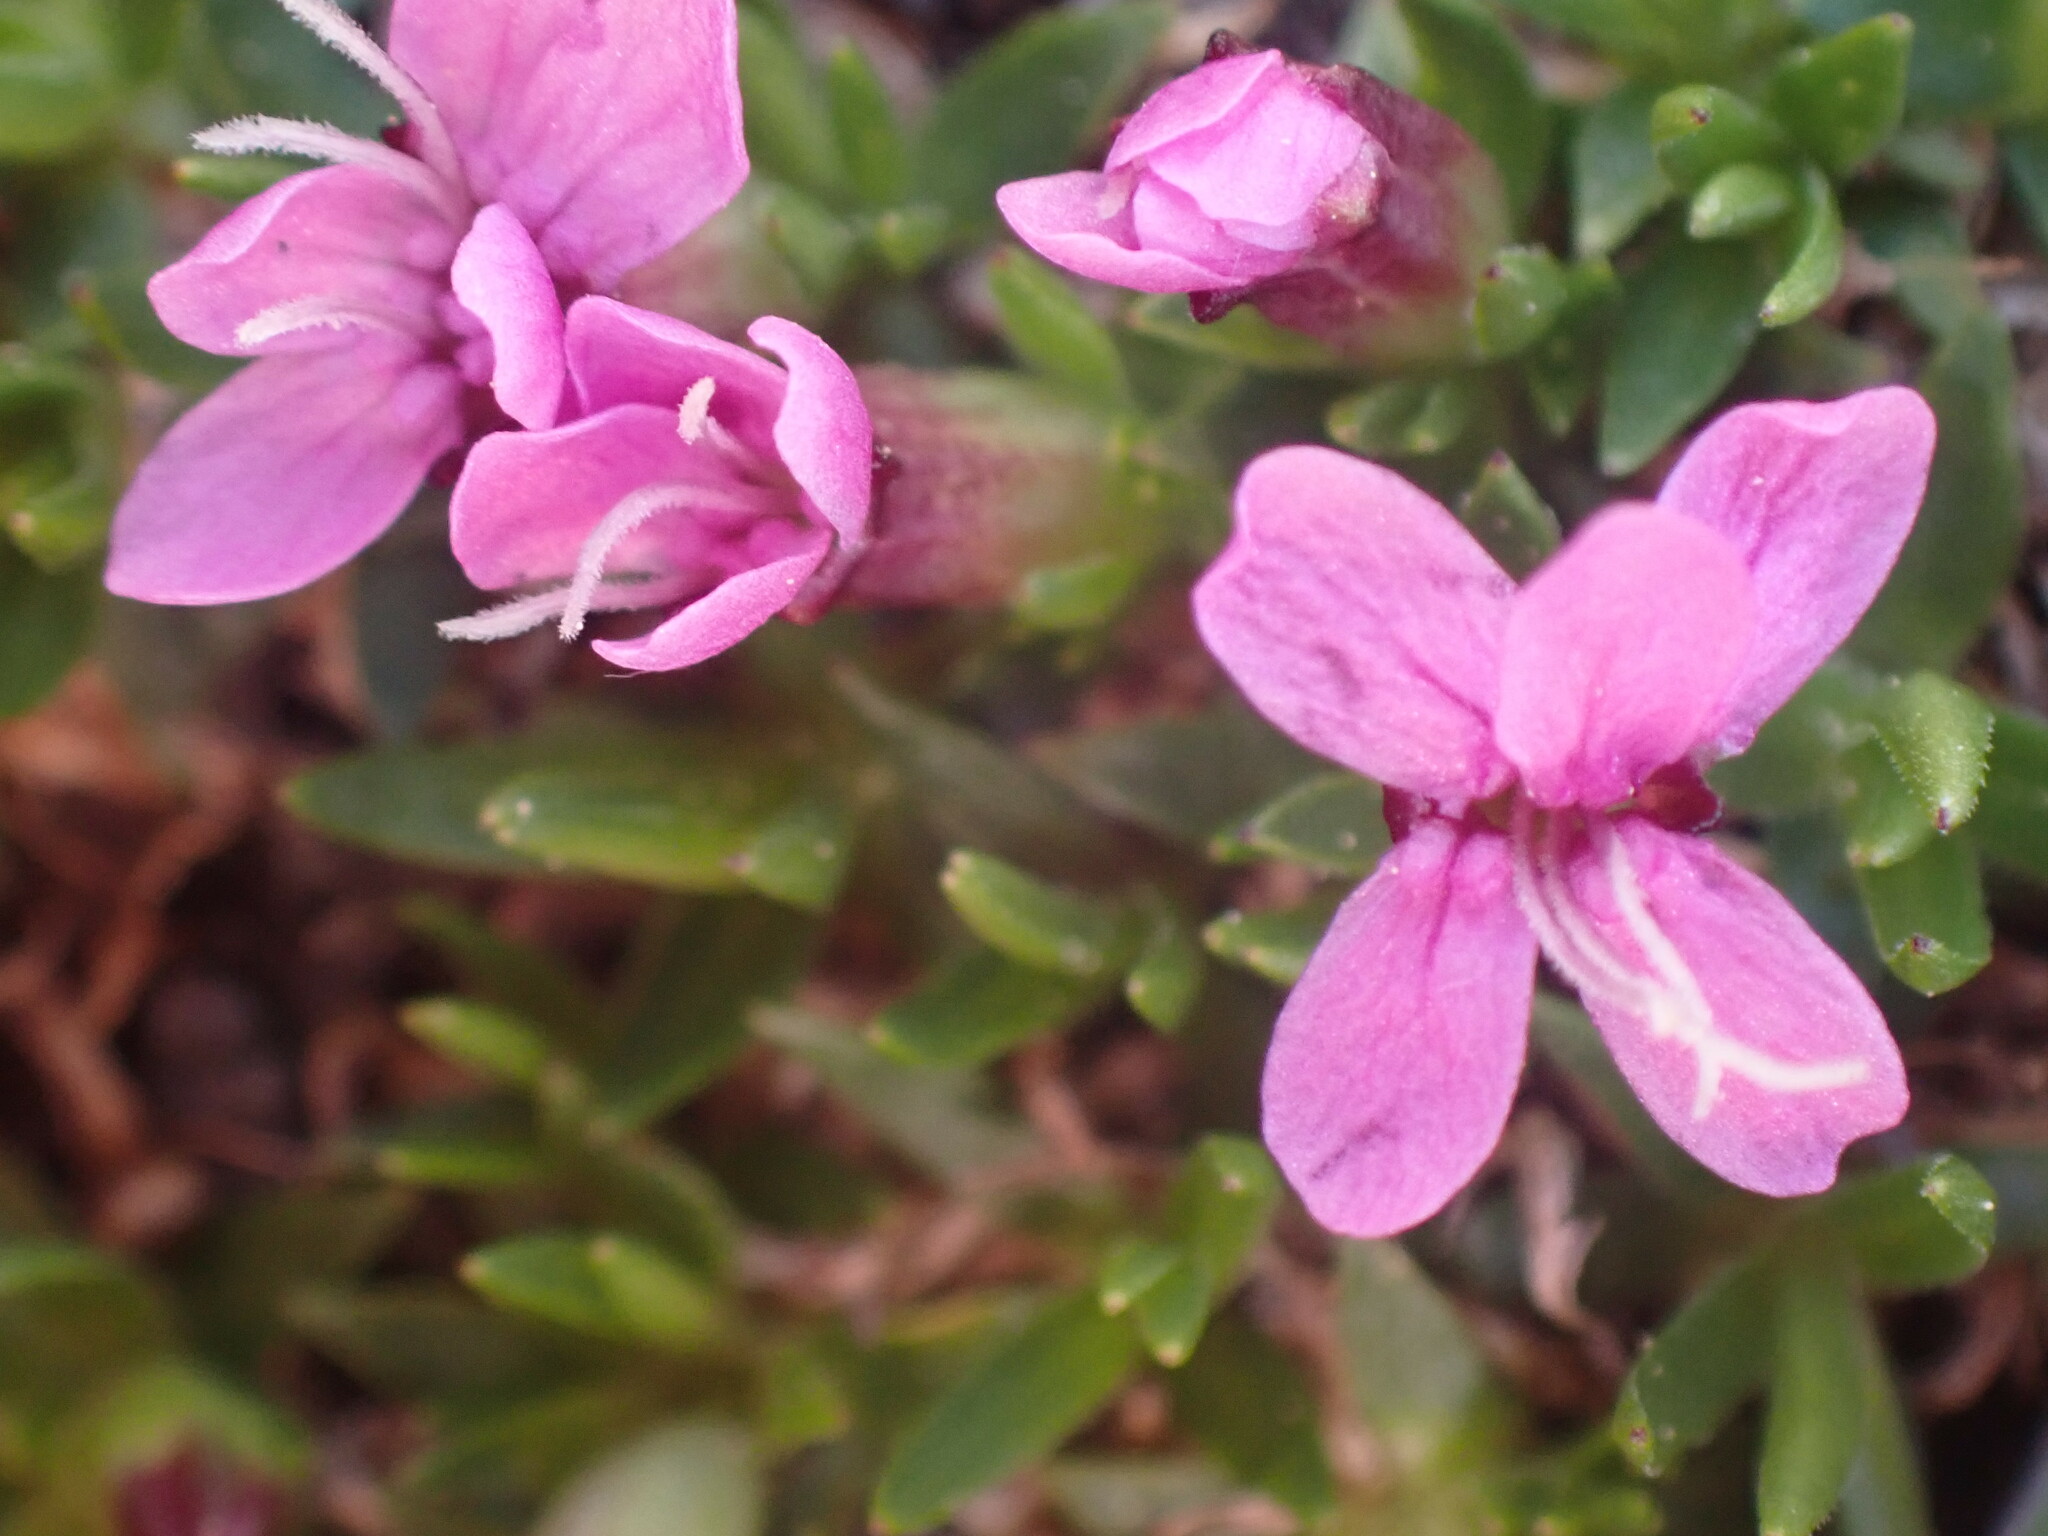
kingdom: Plantae
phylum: Tracheophyta
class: Magnoliopsida
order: Caryophyllales
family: Caryophyllaceae
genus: Silene
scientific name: Silene acaulis
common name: Moss campion
